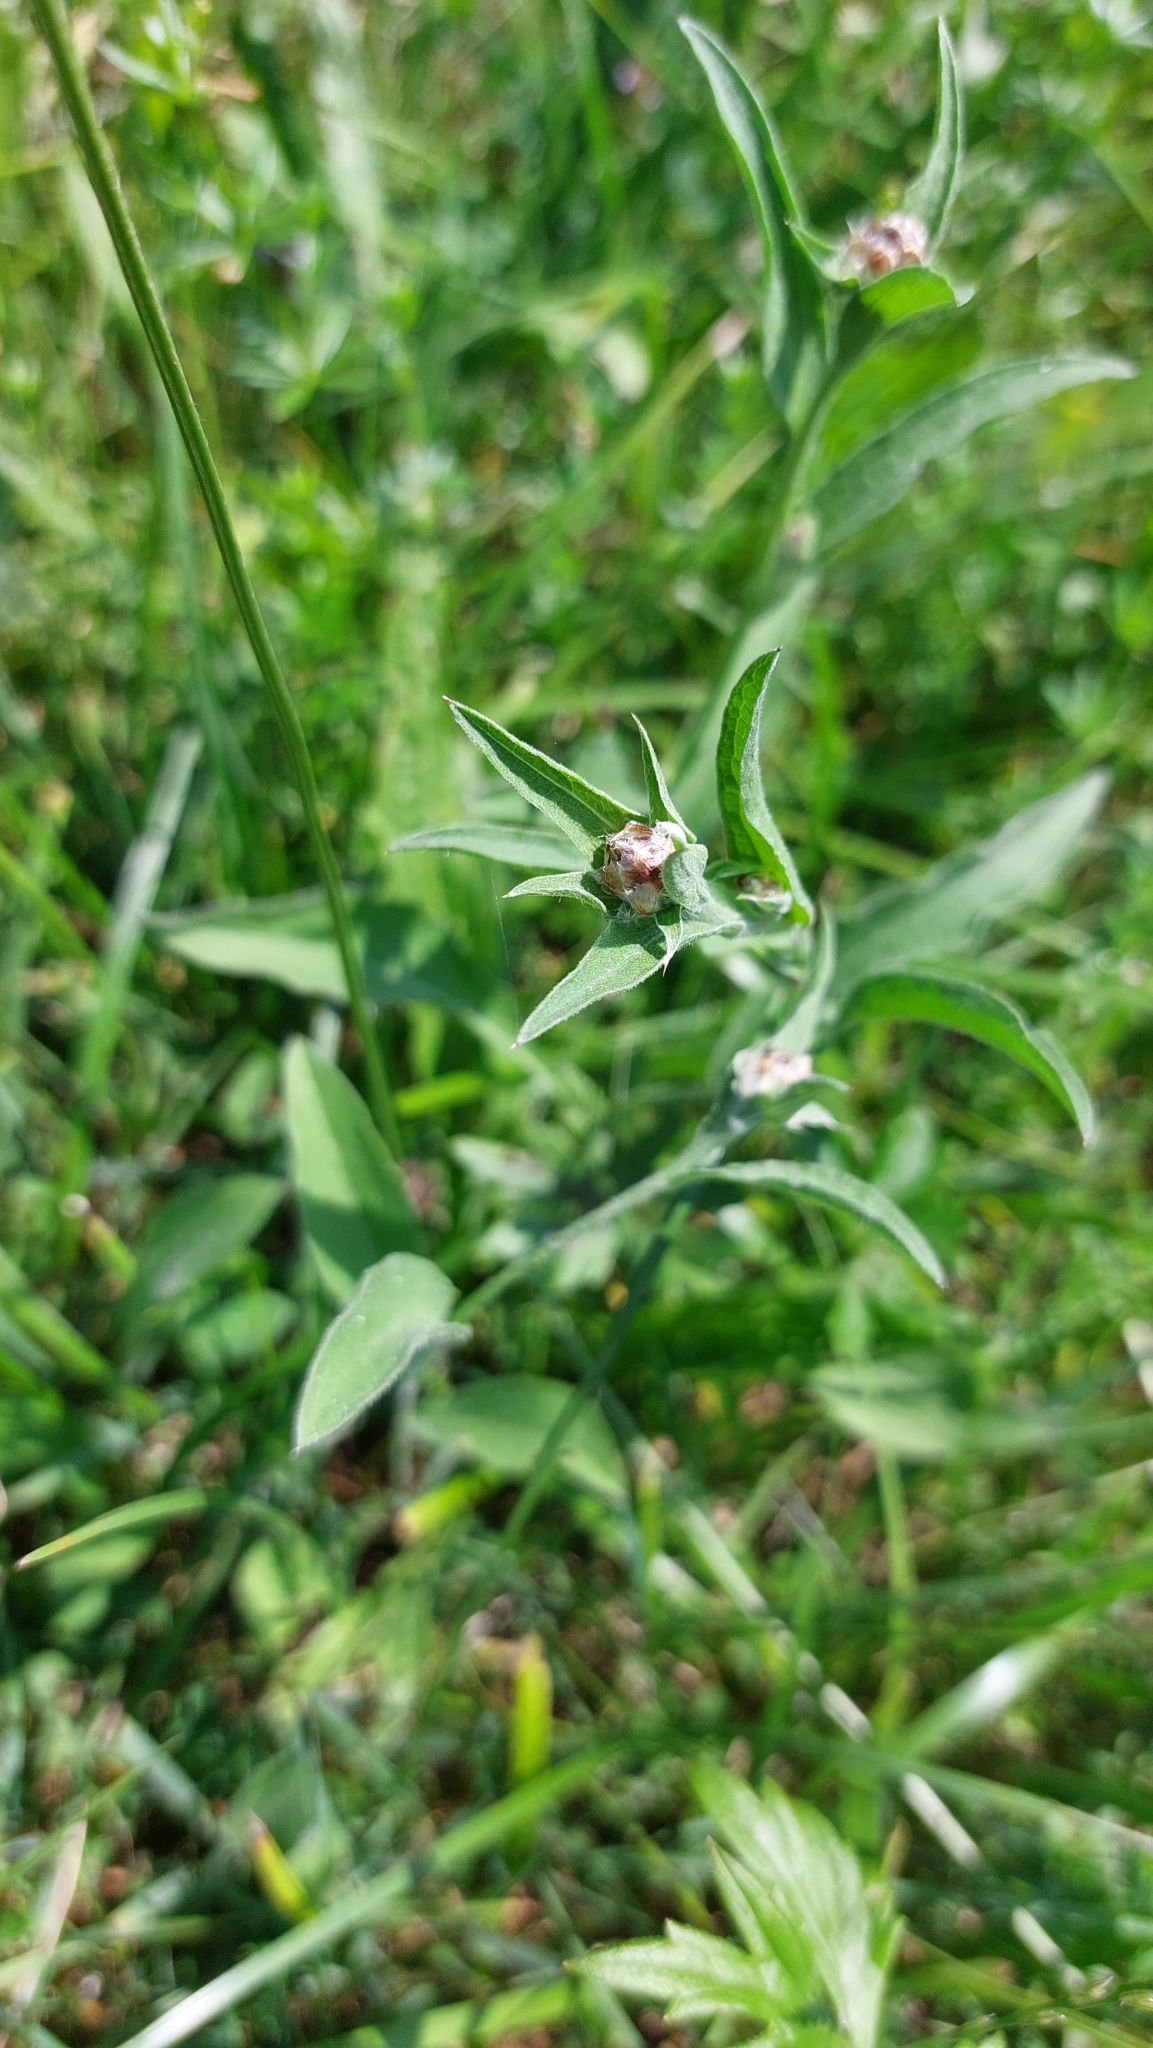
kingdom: Plantae
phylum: Tracheophyta
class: Magnoliopsida
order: Asterales
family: Asteraceae
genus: Centaurea
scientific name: Centaurea jacea
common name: Brown knapweed
